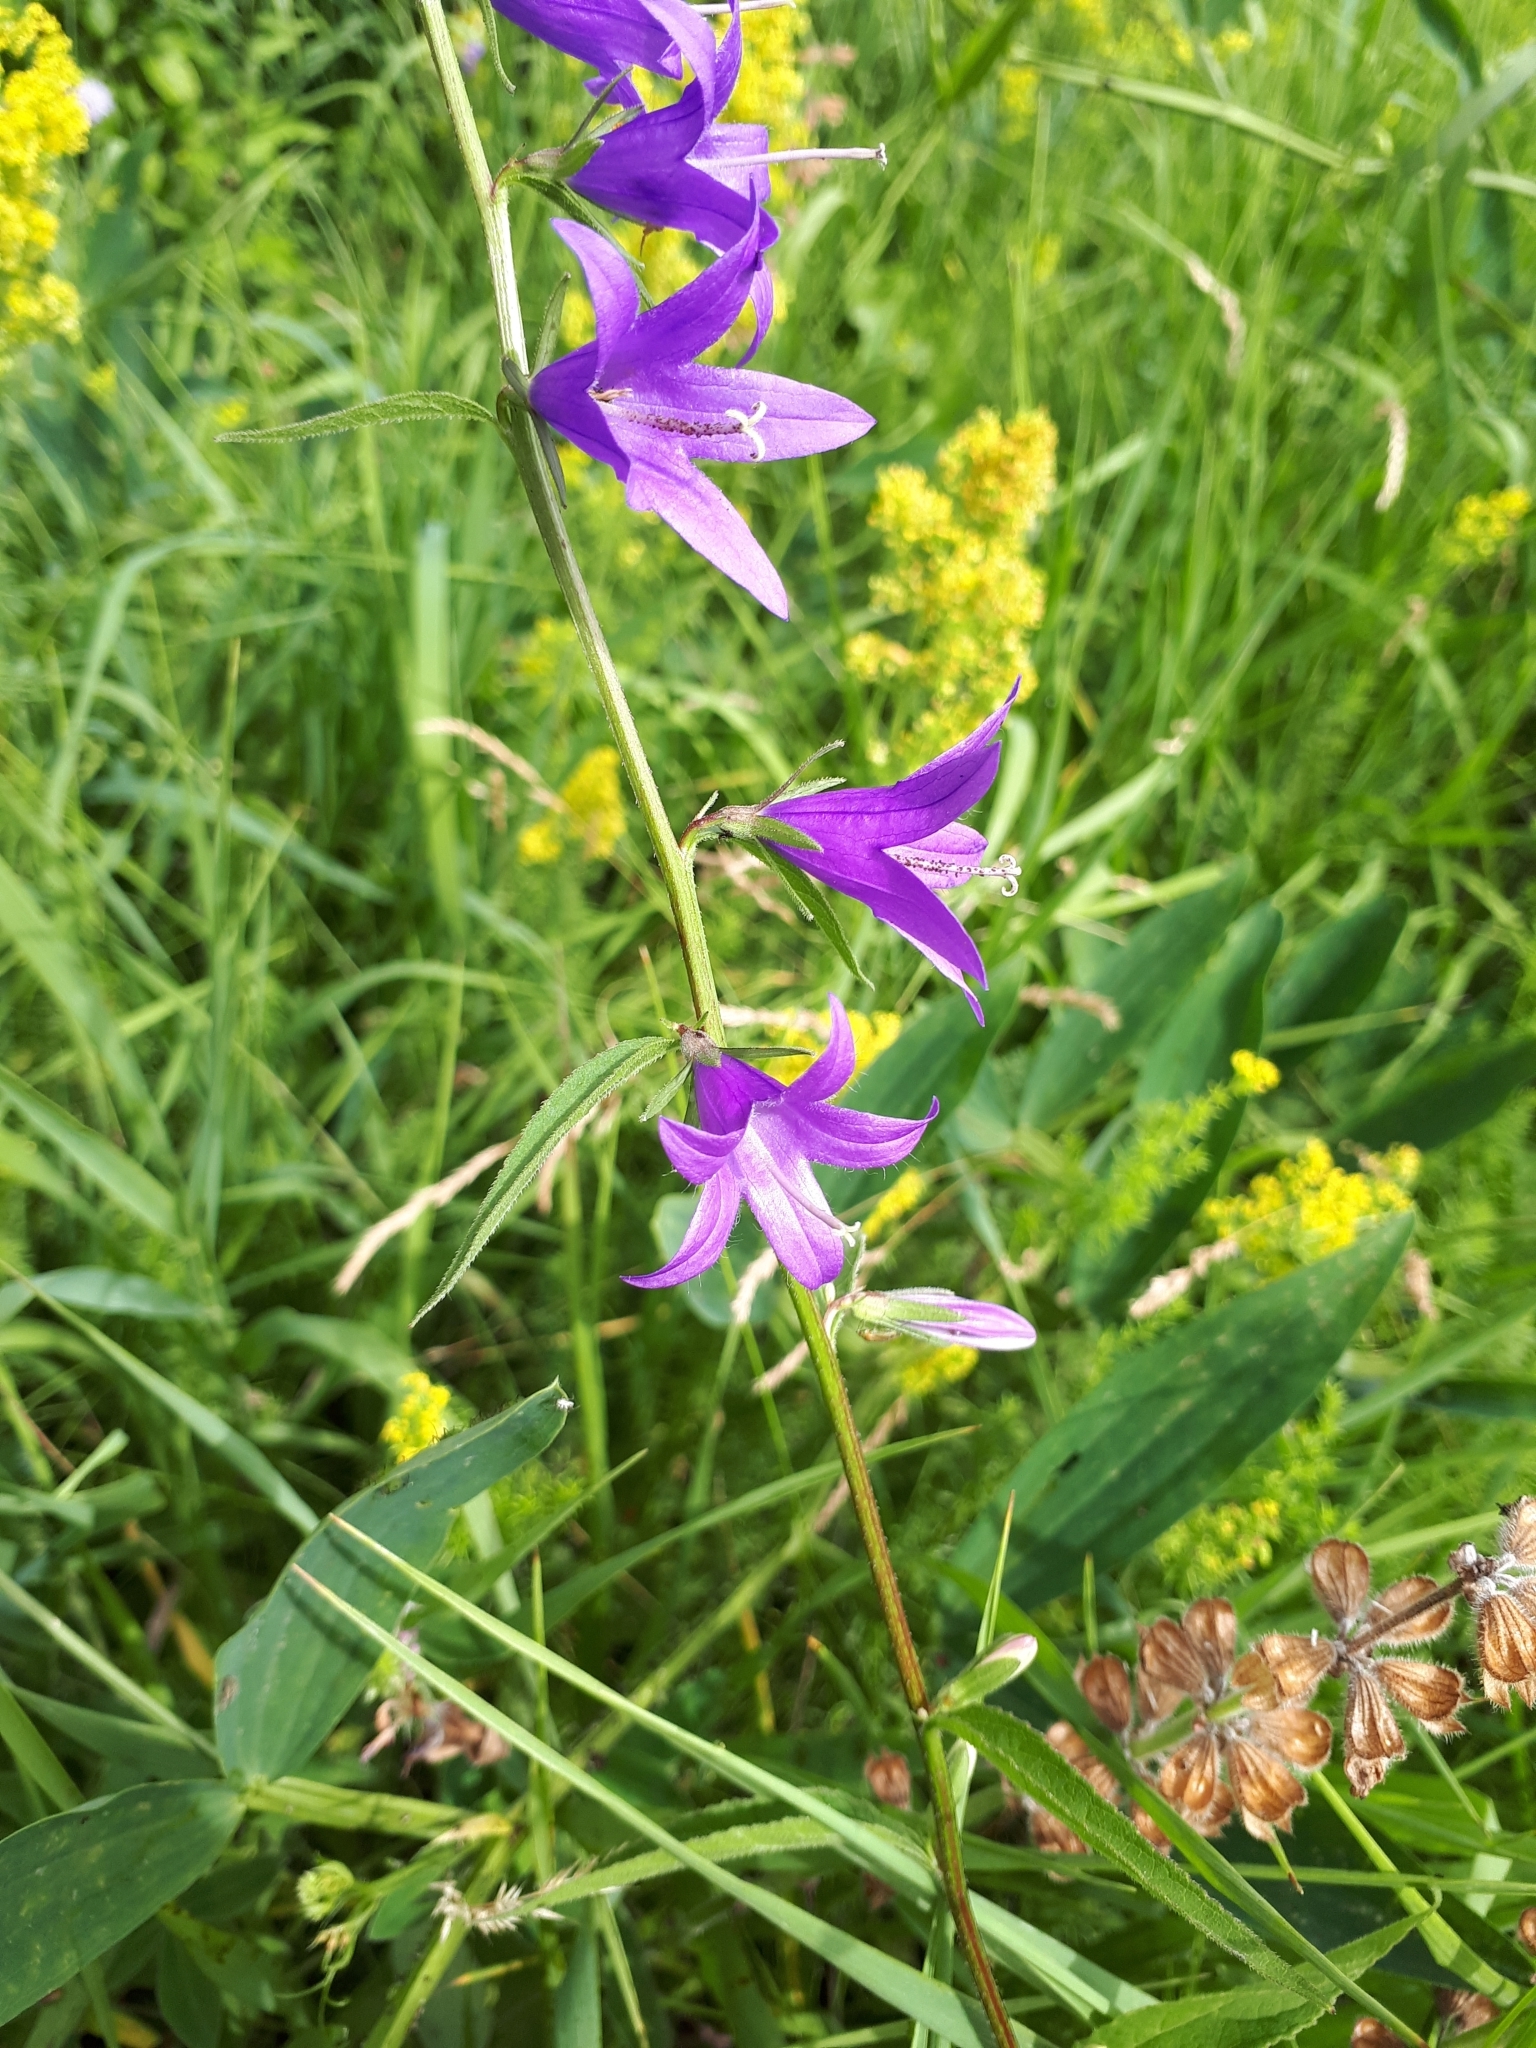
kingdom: Plantae
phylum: Tracheophyta
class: Magnoliopsida
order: Asterales
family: Campanulaceae
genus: Campanula
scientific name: Campanula rapunculoides
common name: Creeping bellflower
